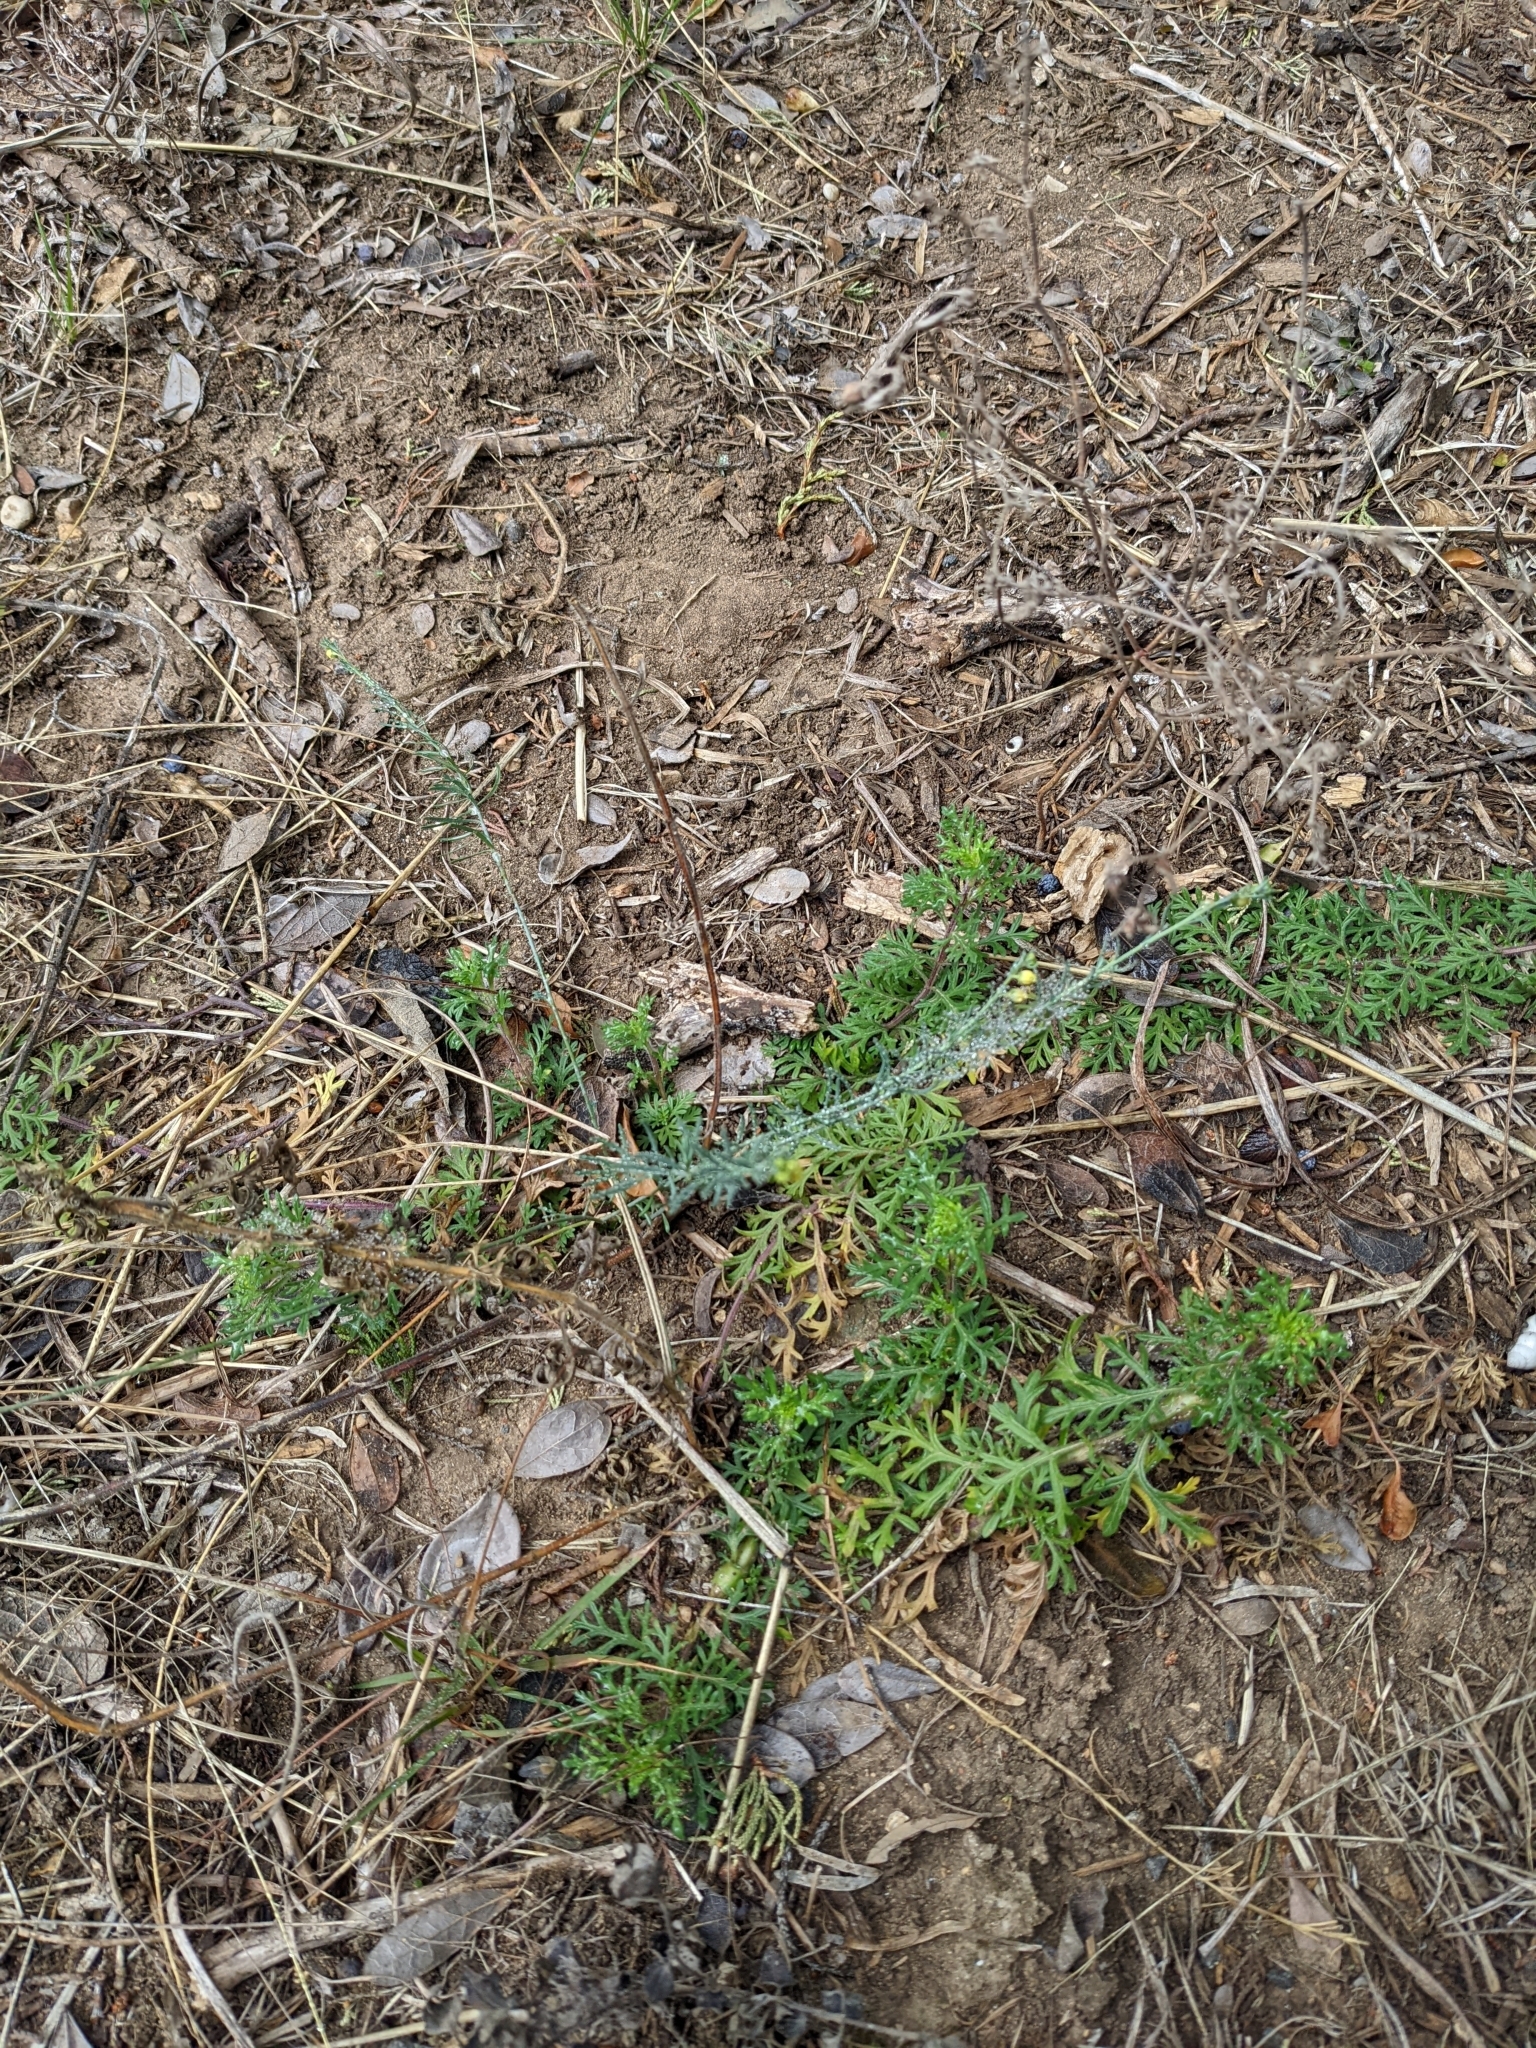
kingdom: Plantae
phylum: Tracheophyta
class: Magnoliopsida
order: Sapindales
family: Rutaceae
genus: Thamnosma
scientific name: Thamnosma texana
